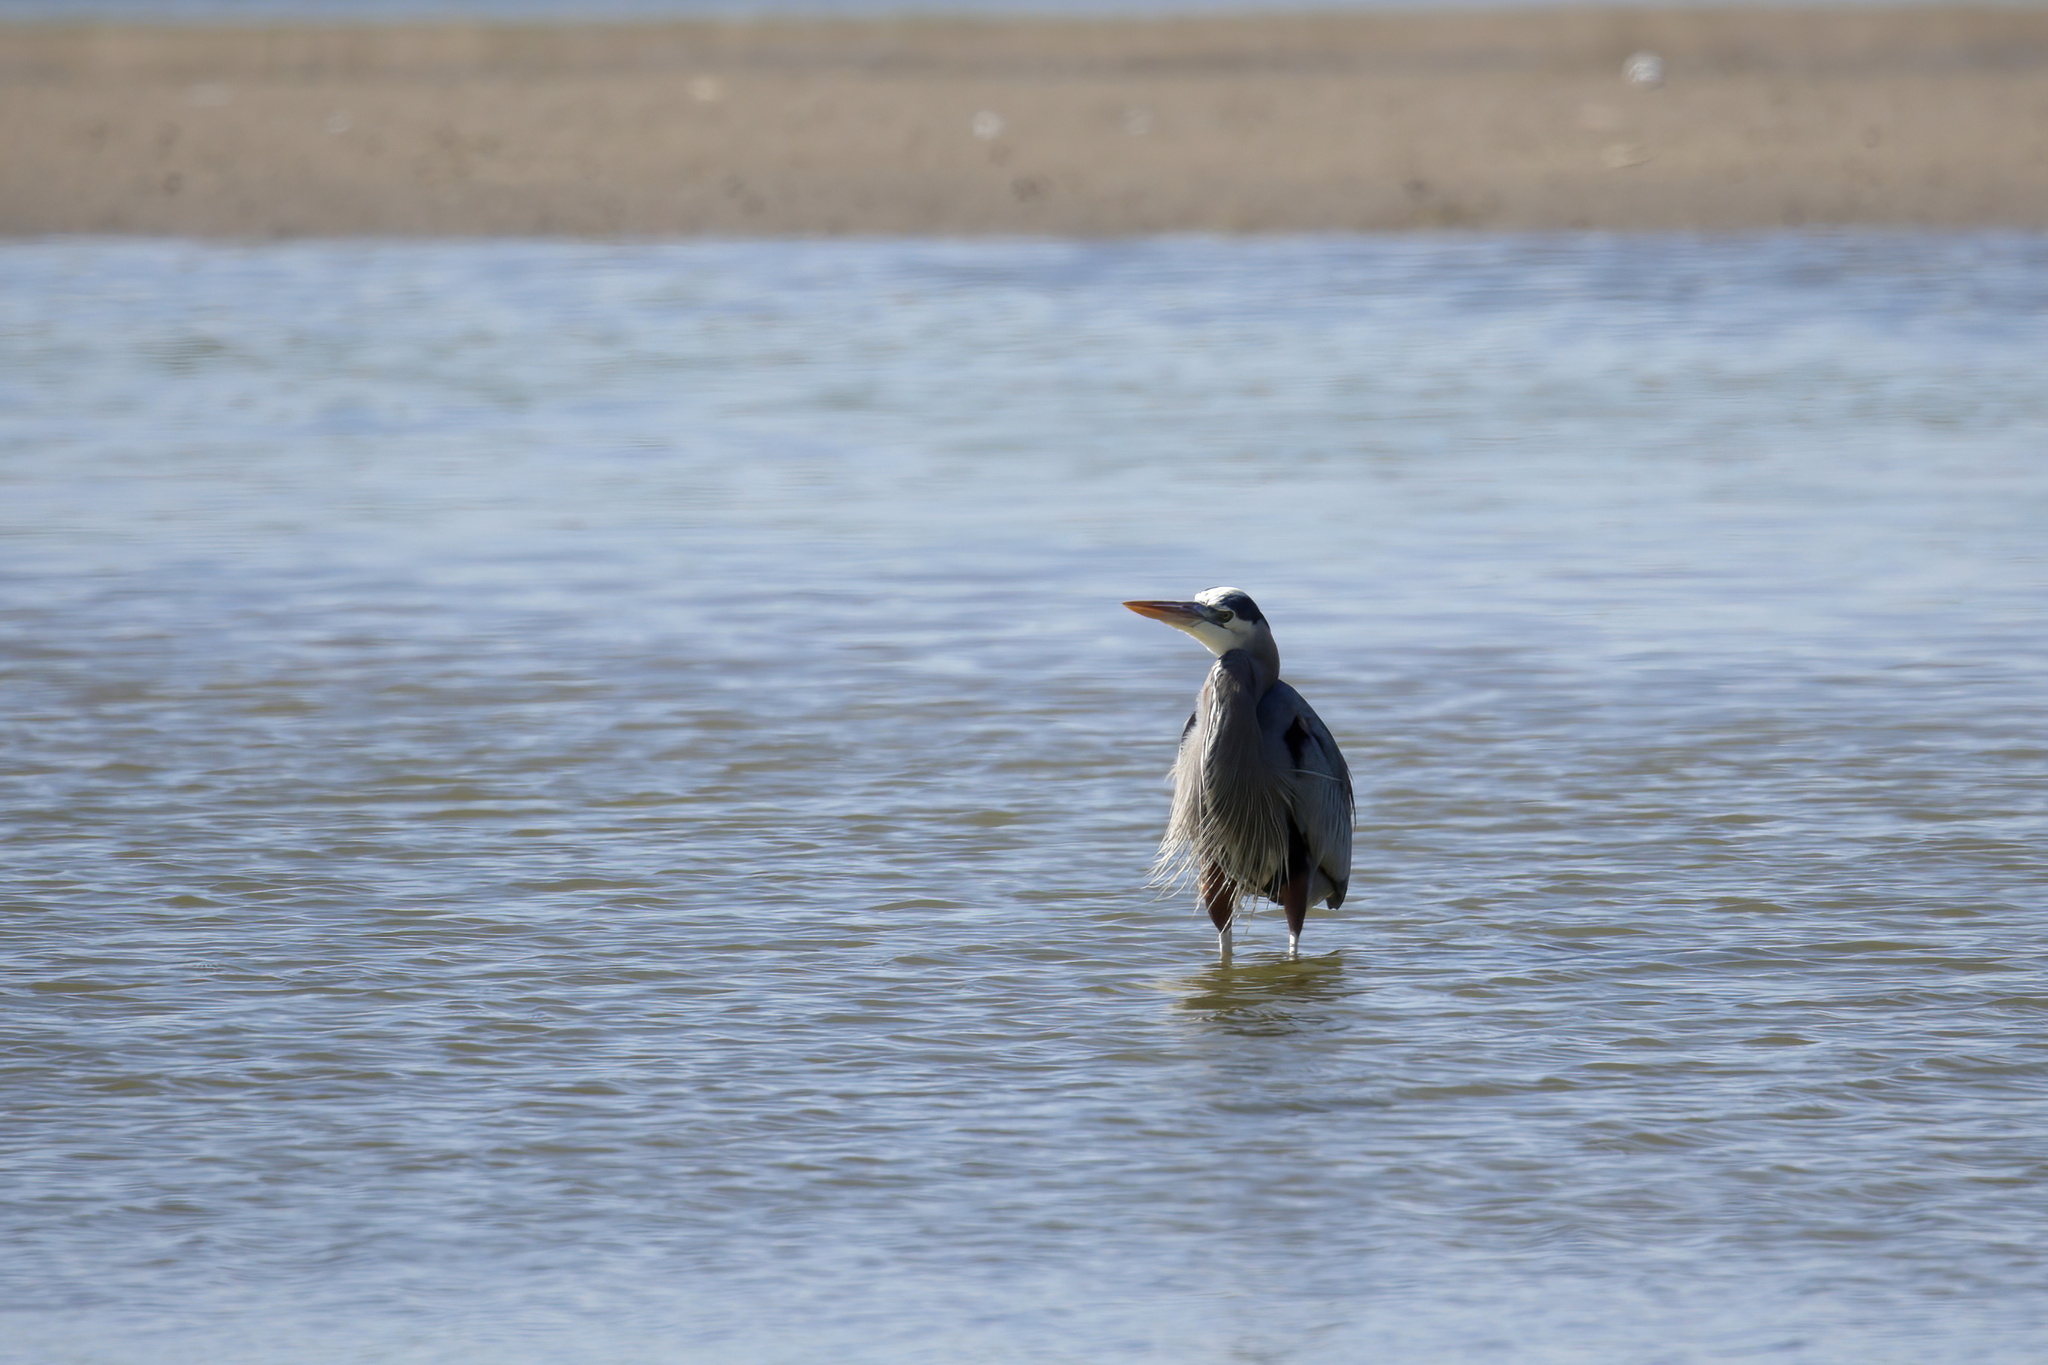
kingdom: Animalia
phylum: Chordata
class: Aves
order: Pelecaniformes
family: Ardeidae
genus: Ardea
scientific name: Ardea herodias
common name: Great blue heron
